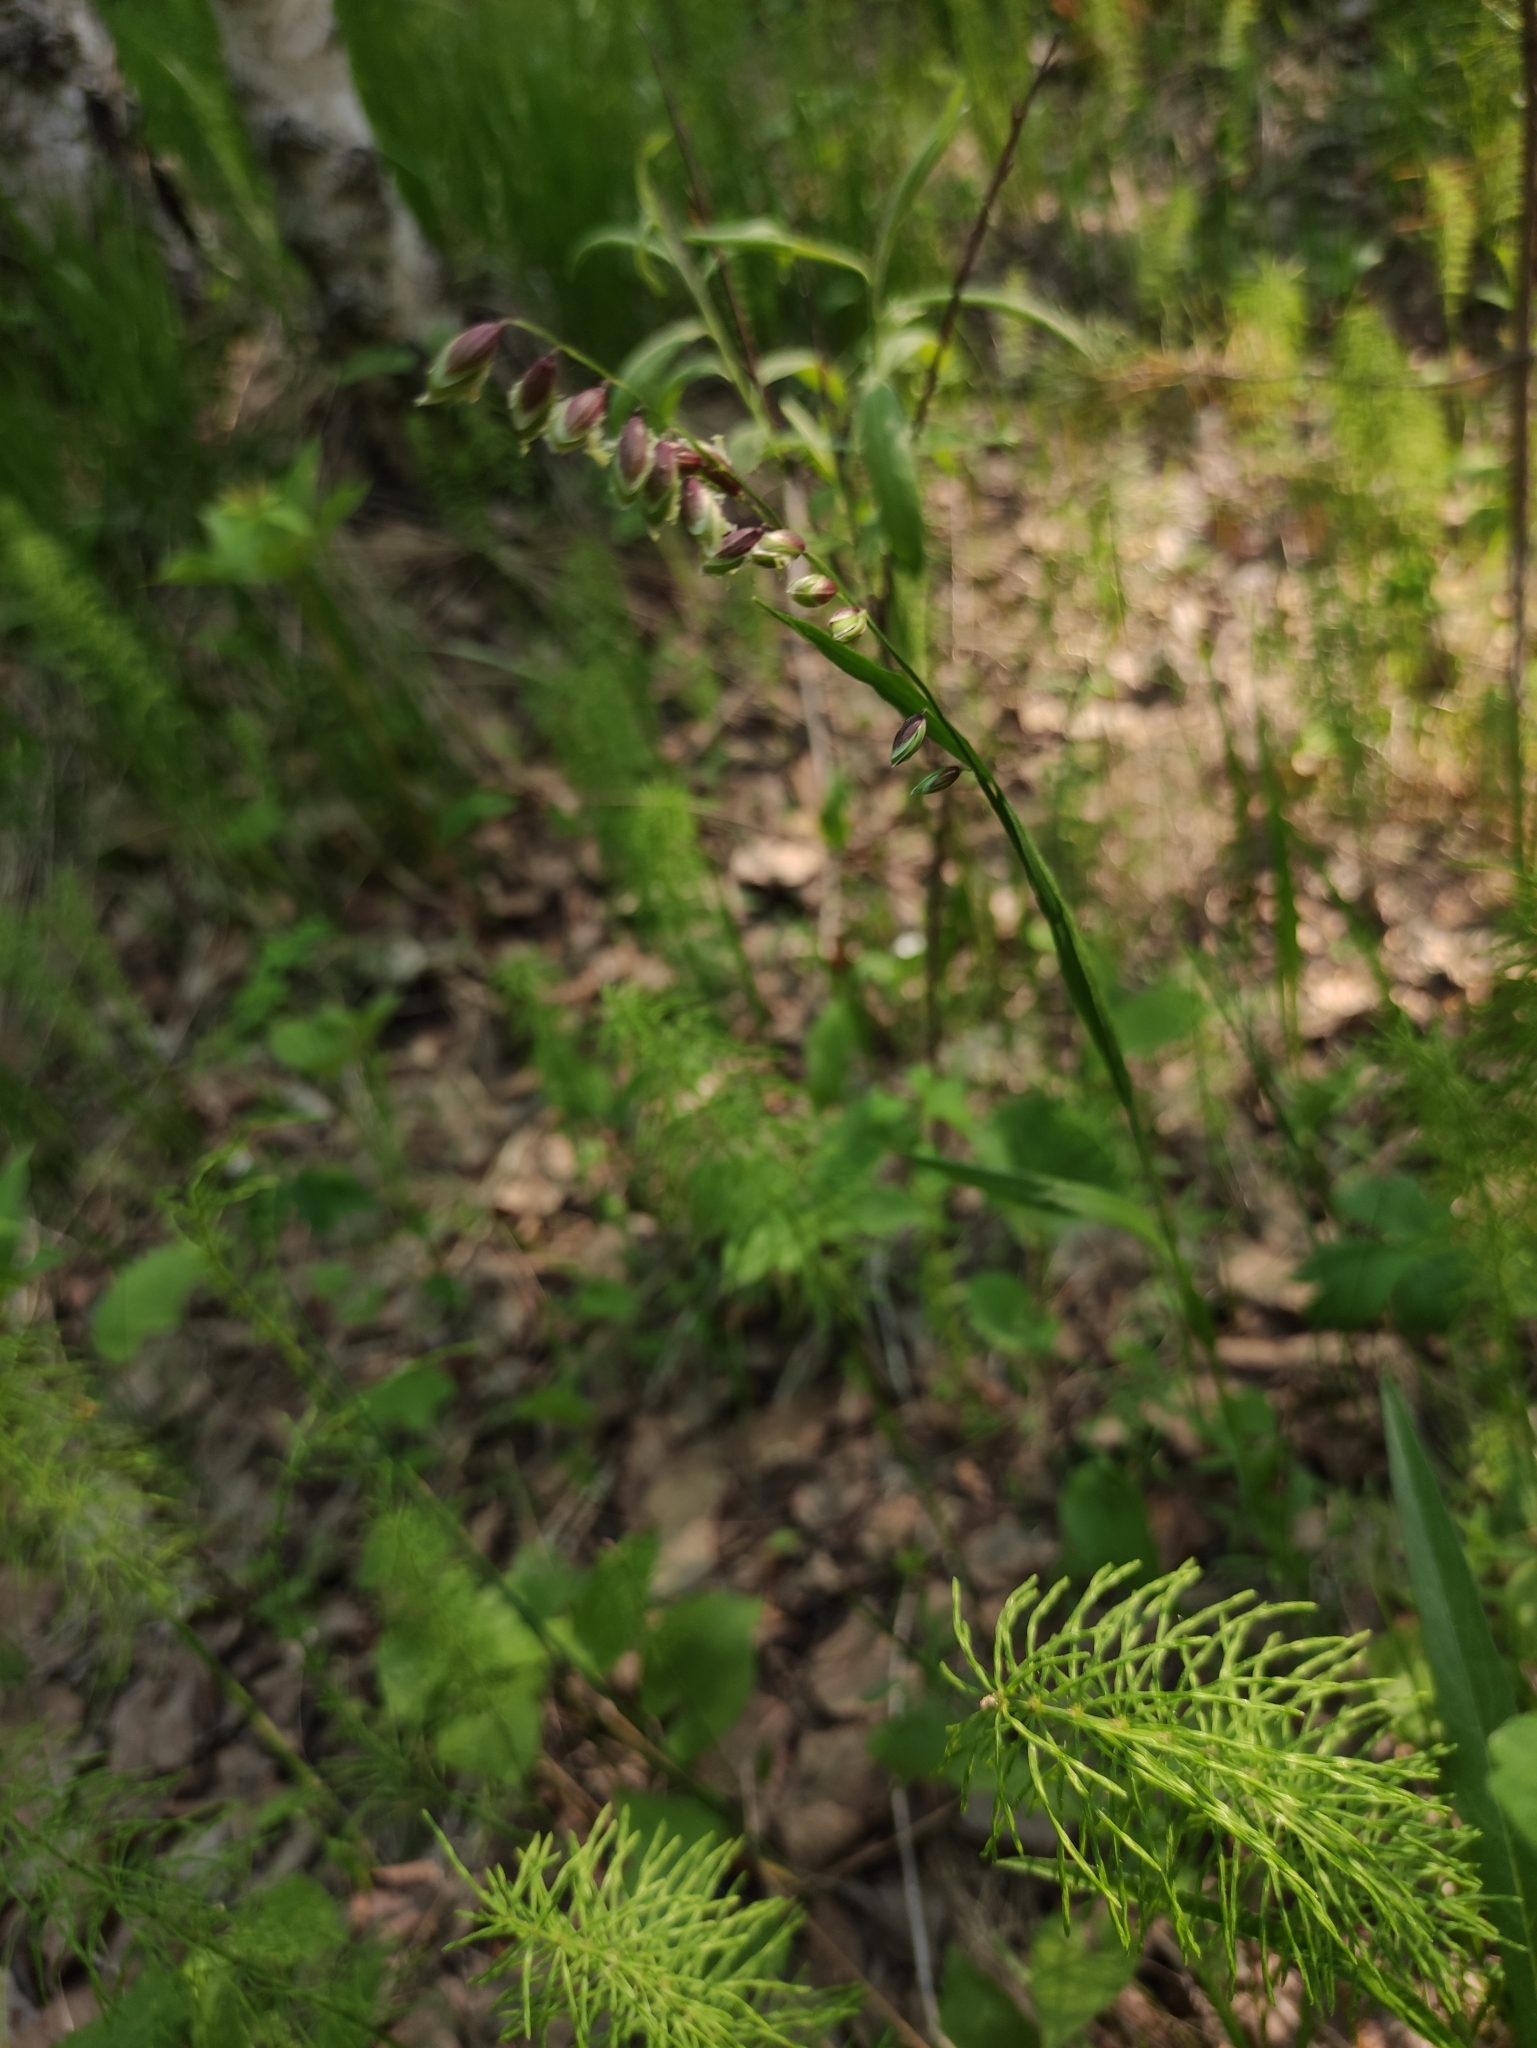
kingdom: Plantae
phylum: Tracheophyta
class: Liliopsida
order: Poales
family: Poaceae
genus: Melica
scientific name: Melica nutans
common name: Mountain melick
